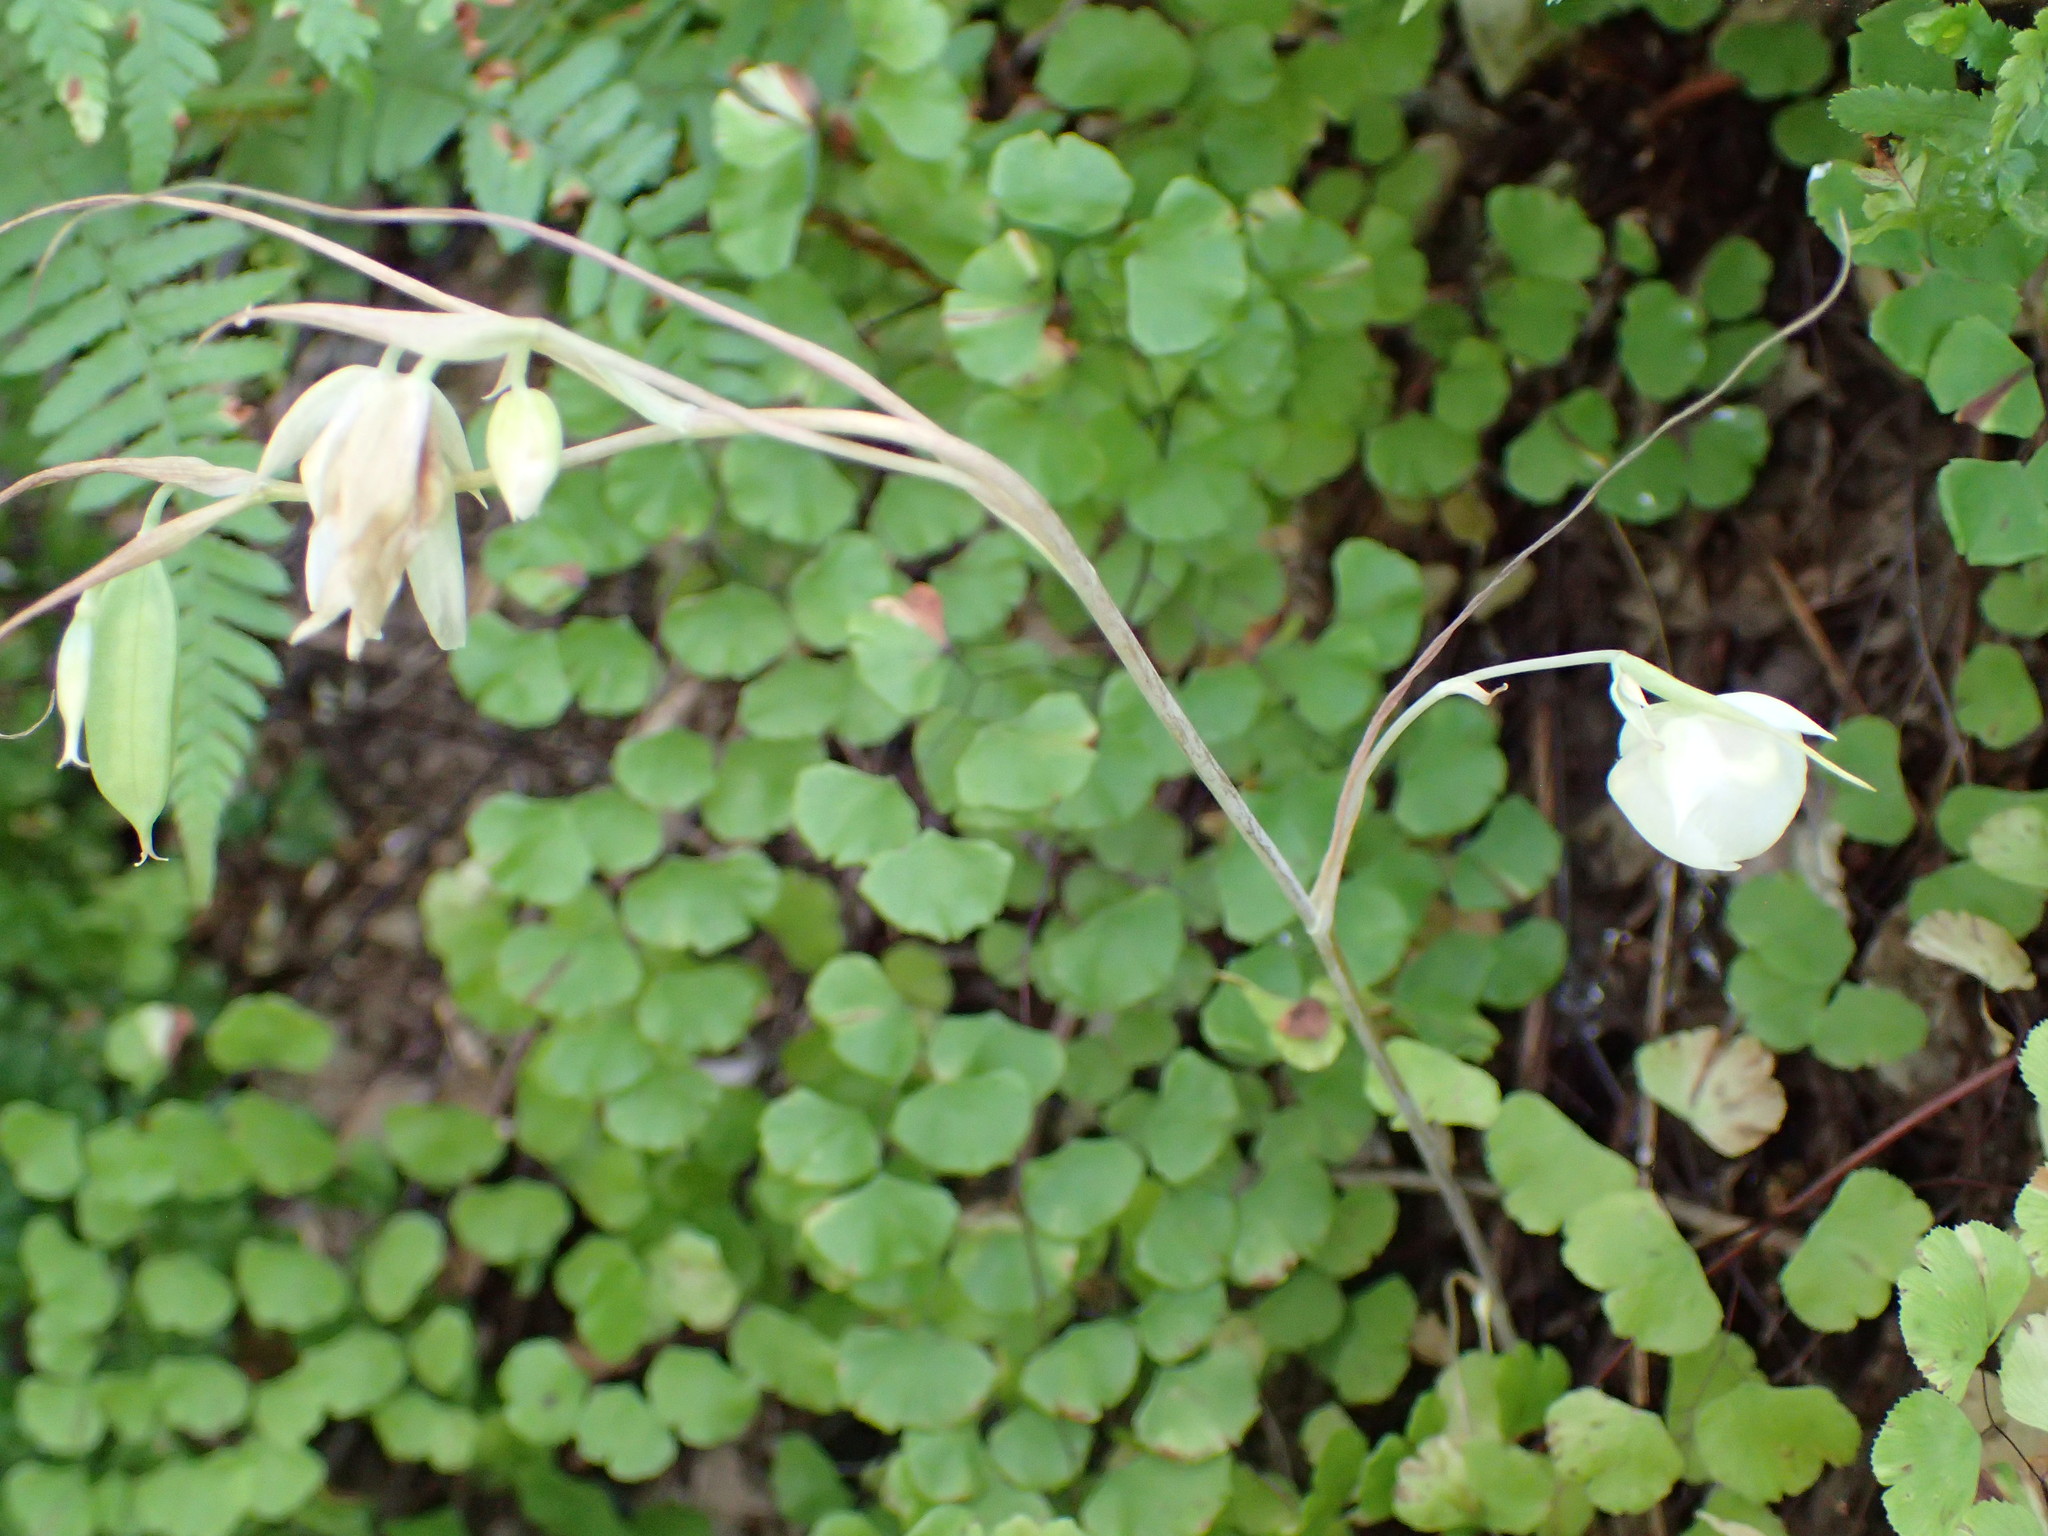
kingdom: Plantae
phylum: Tracheophyta
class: Liliopsida
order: Liliales
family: Liliaceae
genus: Calochortus
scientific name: Calochortus albus
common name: Fairy-lantern
